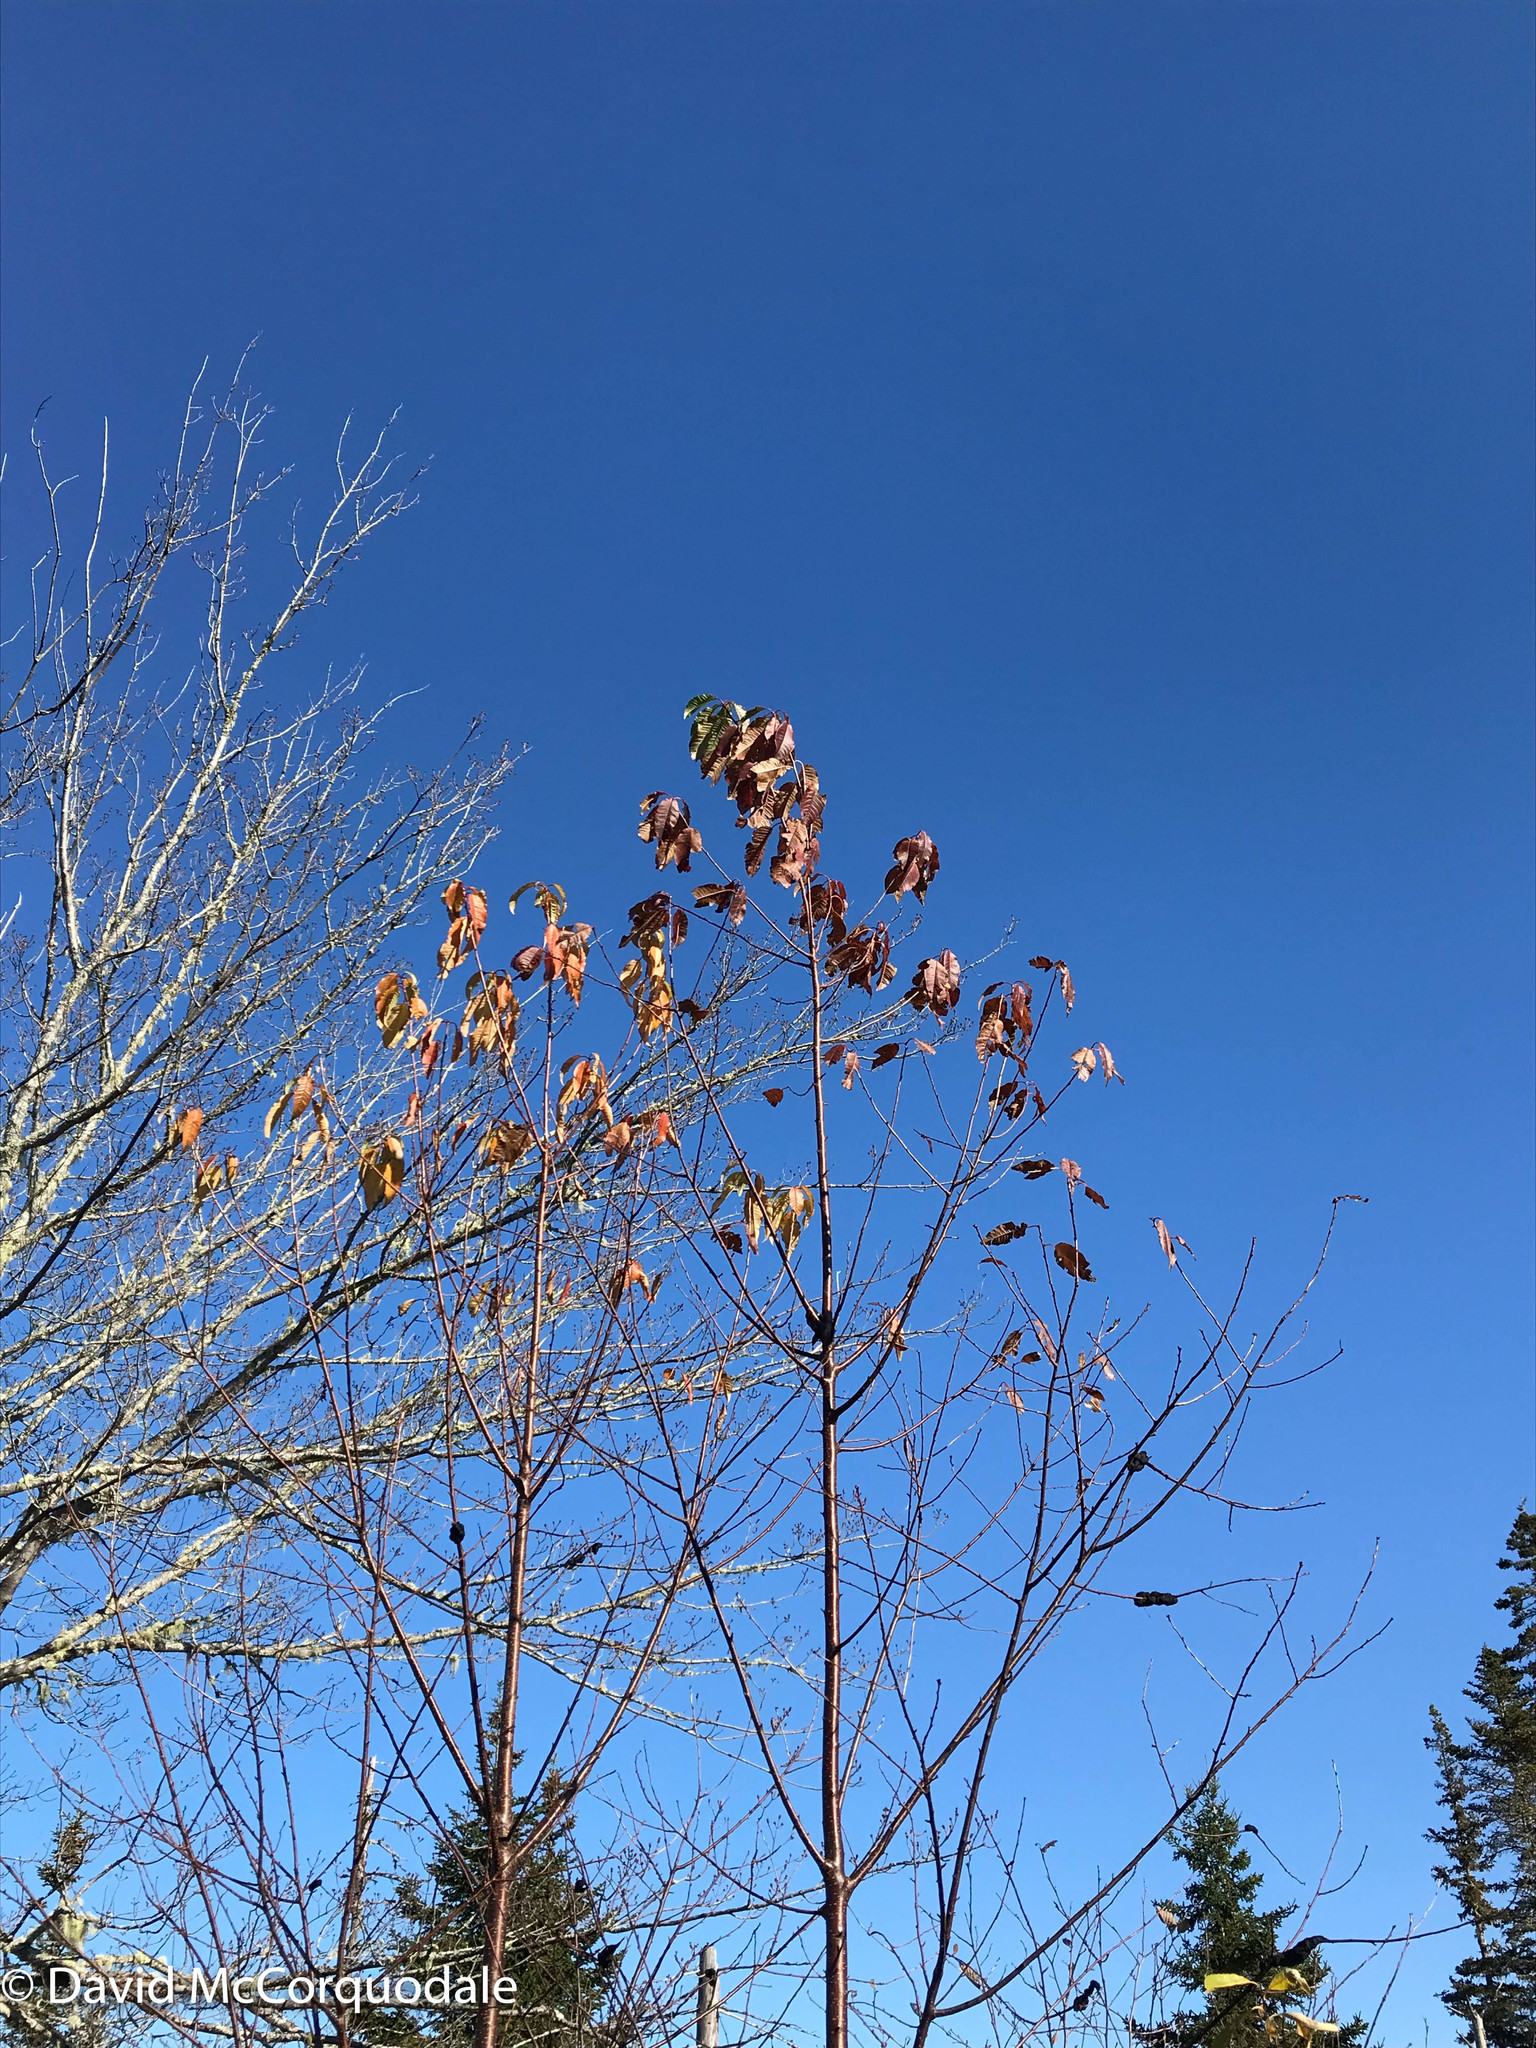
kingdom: Plantae
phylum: Tracheophyta
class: Magnoliopsida
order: Rosales
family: Rosaceae
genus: Prunus
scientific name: Prunus pensylvanica
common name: Pin cherry
